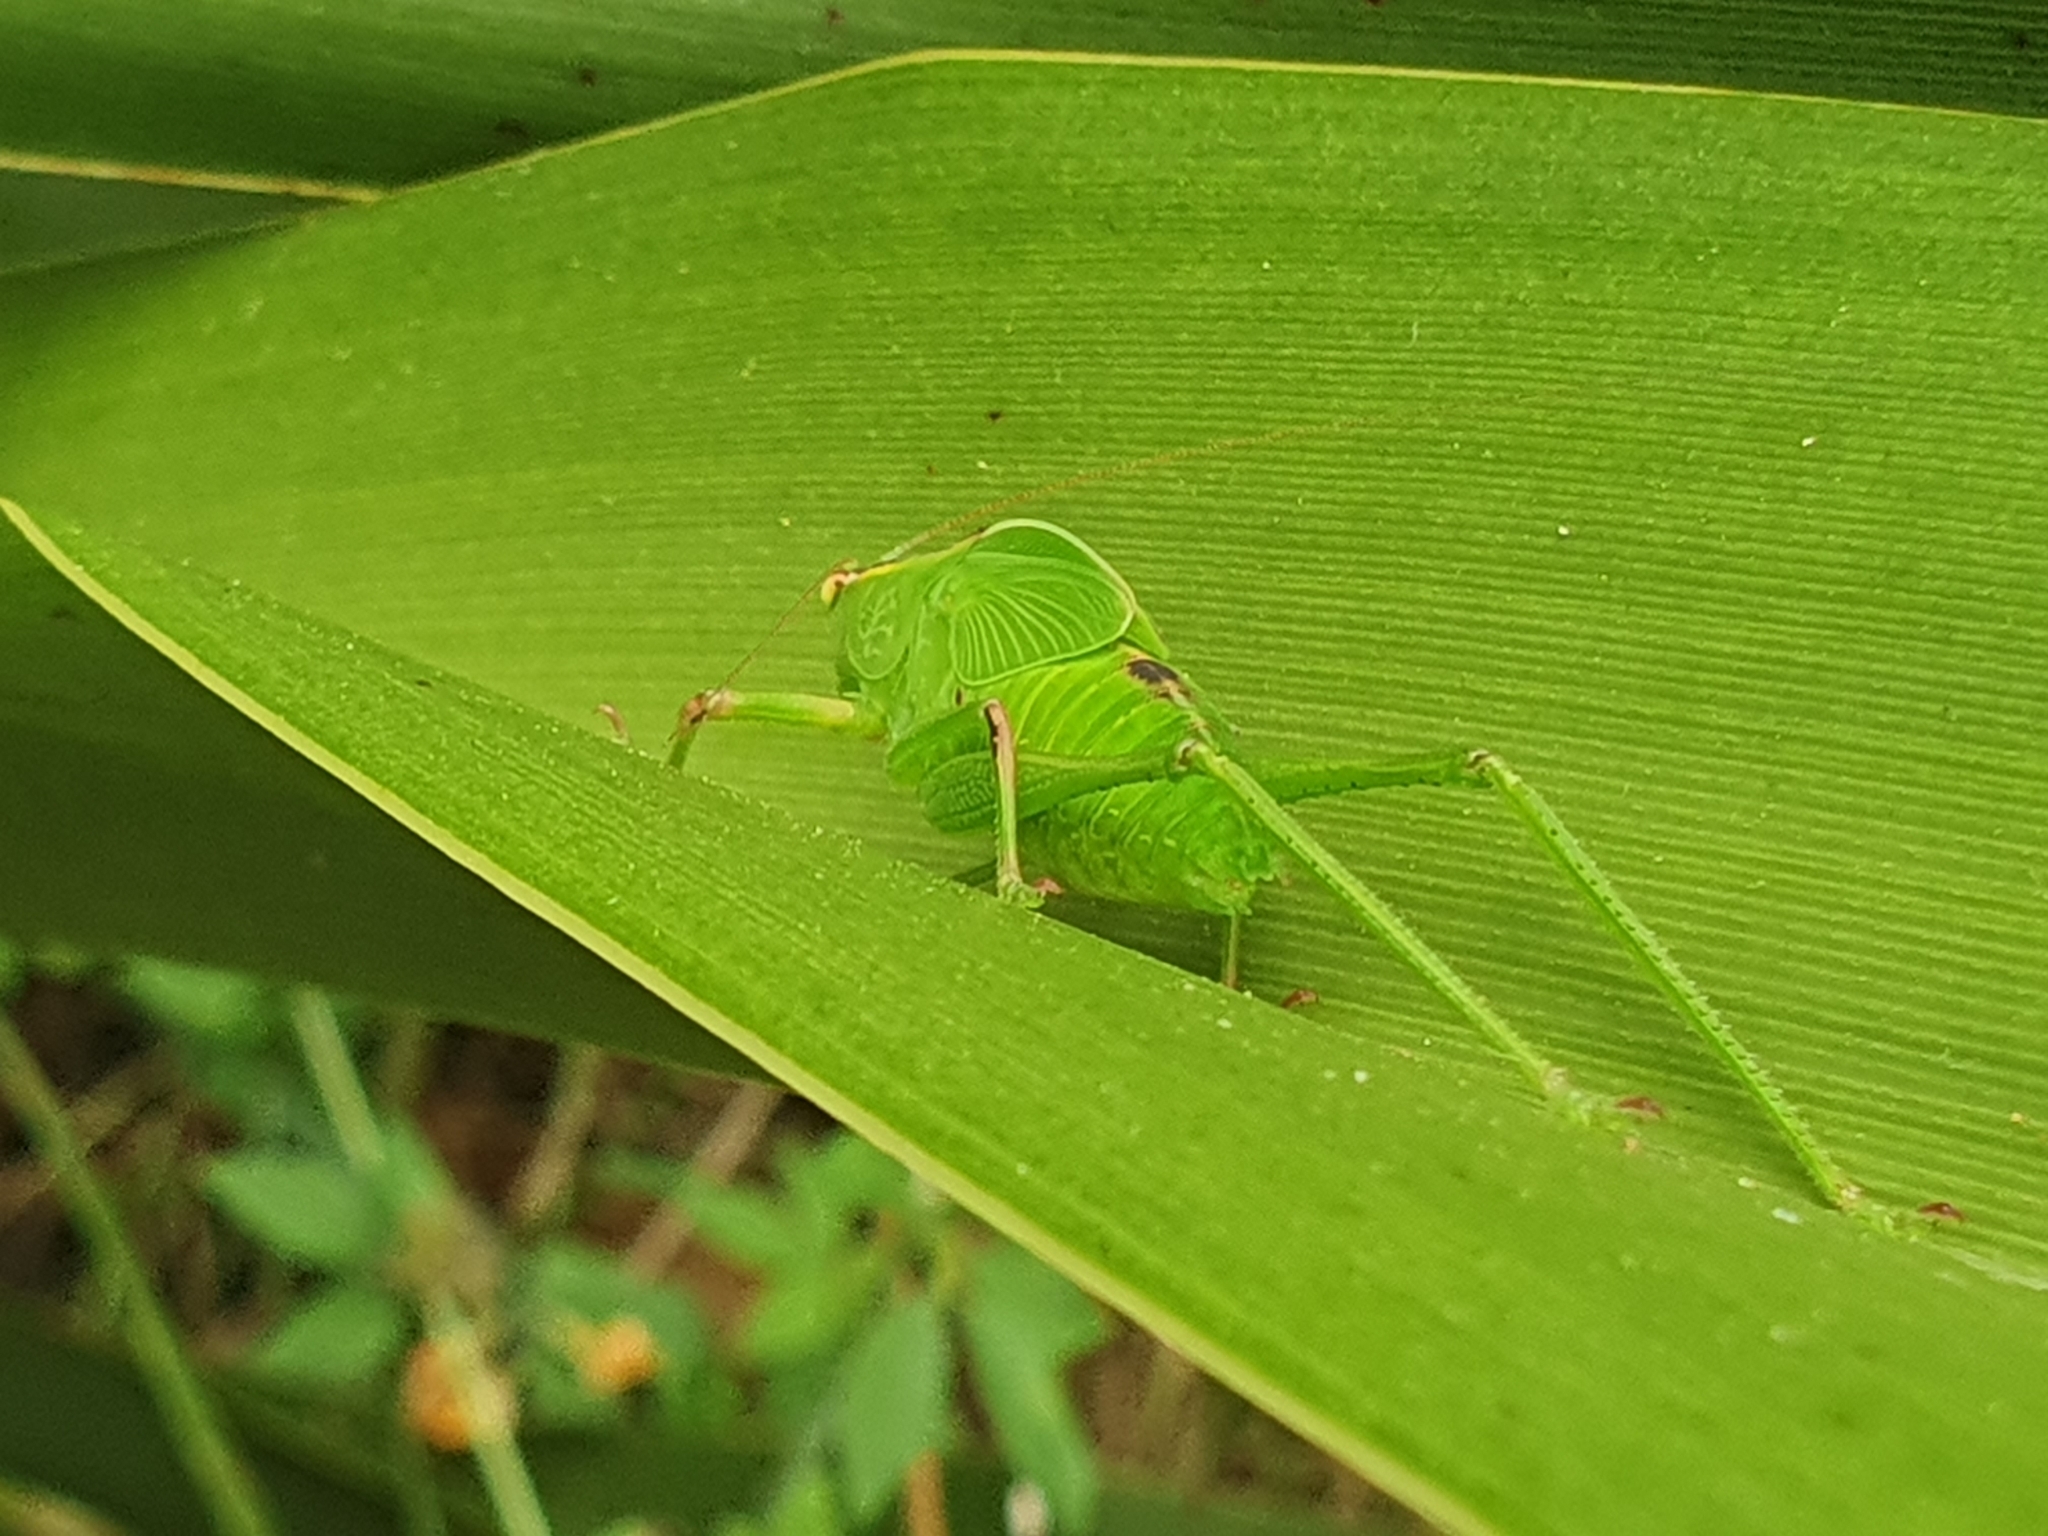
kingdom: Animalia
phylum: Arthropoda
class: Insecta
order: Orthoptera
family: Tettigoniidae
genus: Caedicia
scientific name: Caedicia simplex
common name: Common garden katydid
